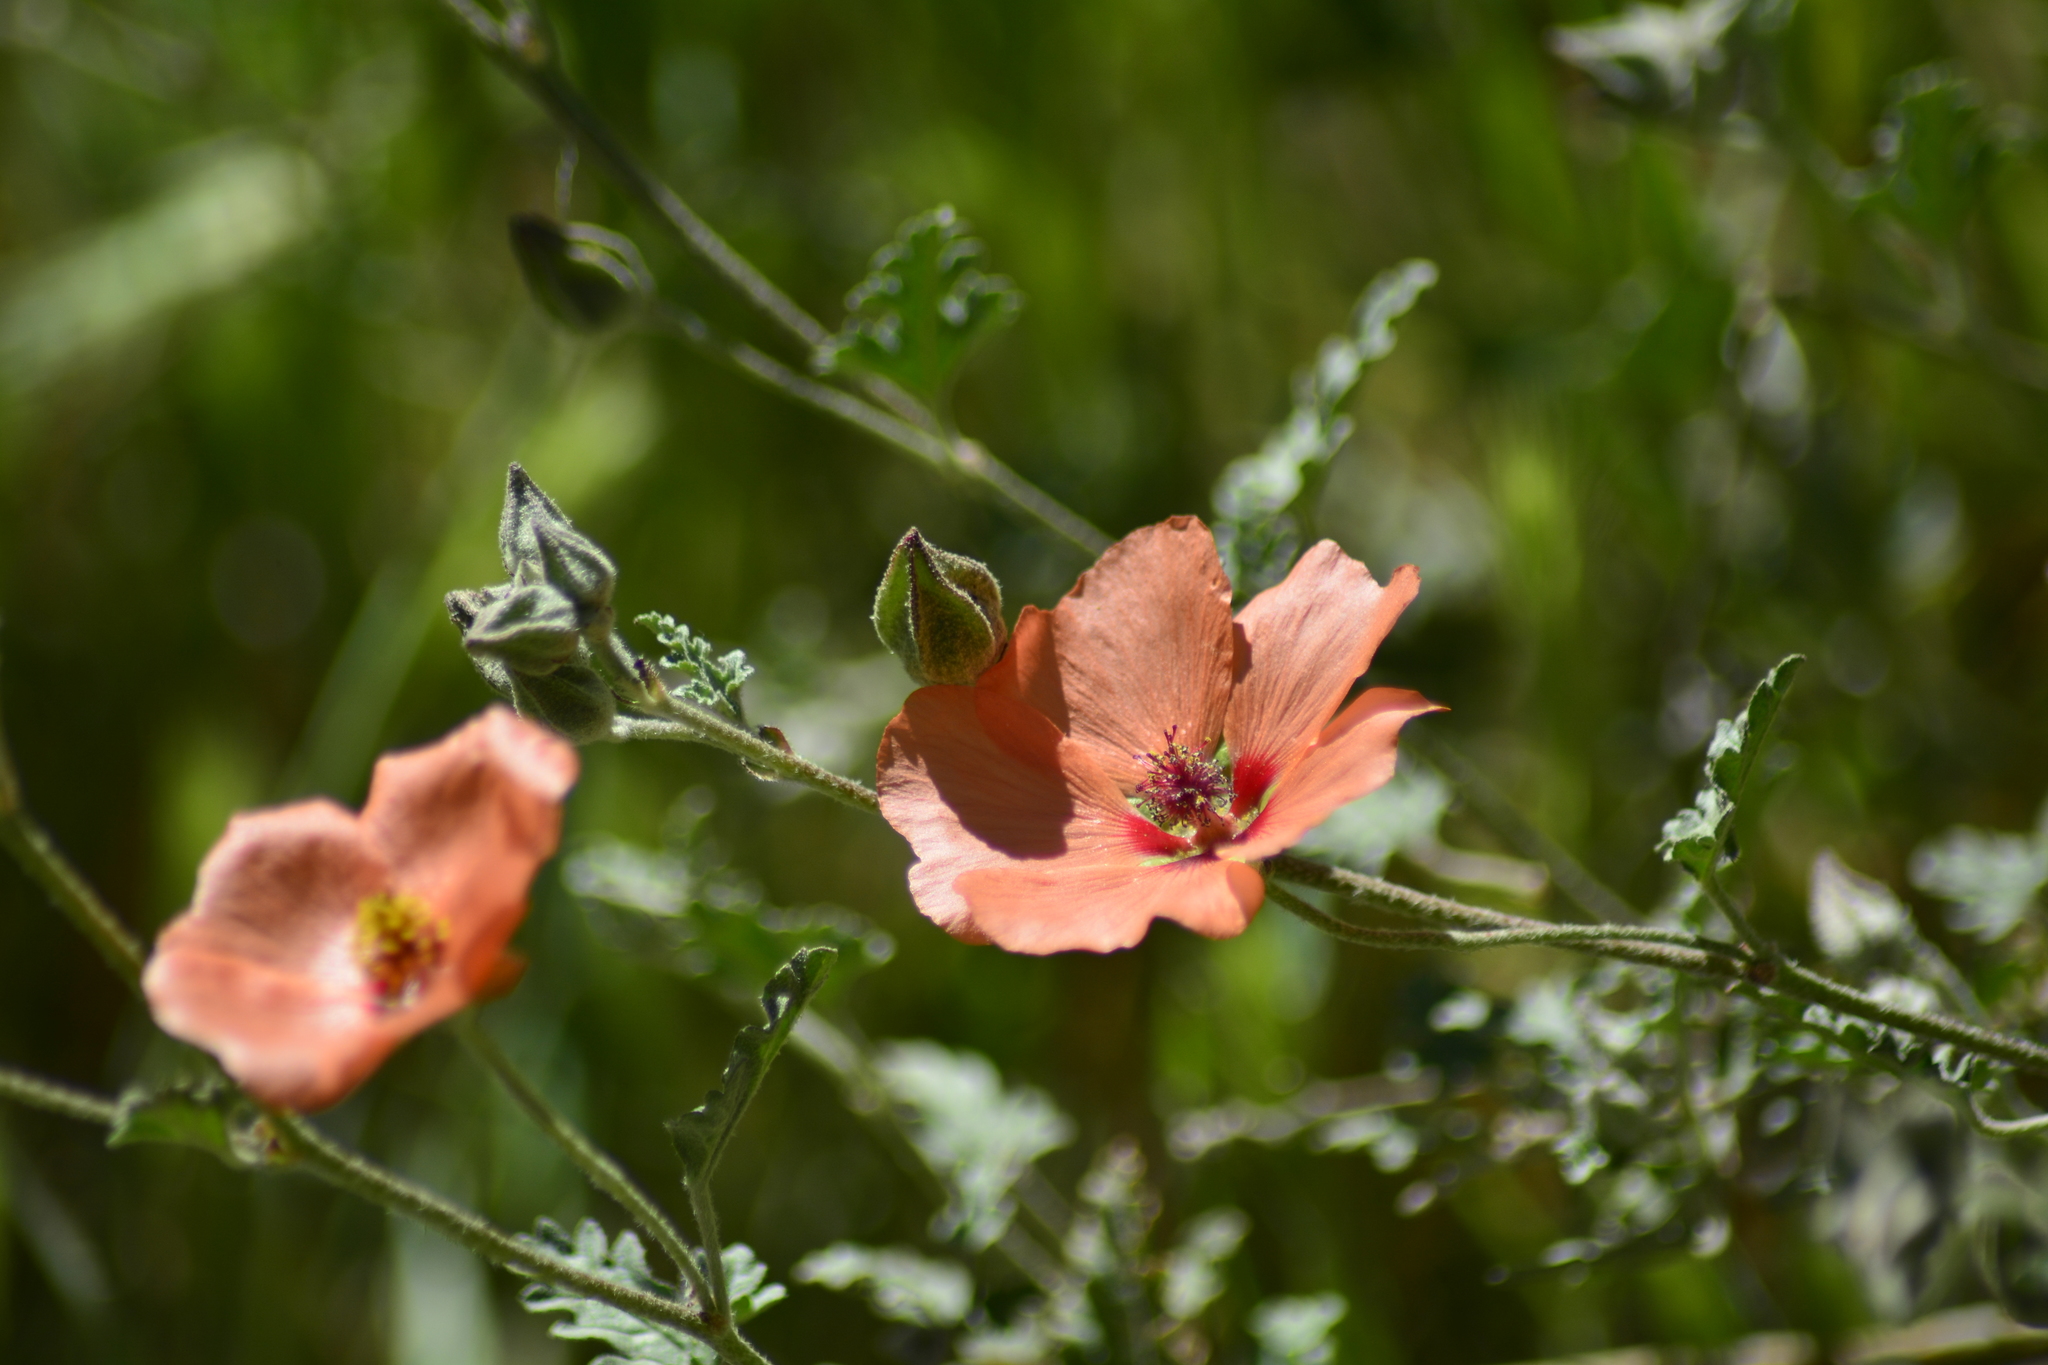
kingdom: Plantae
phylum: Tracheophyta
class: Magnoliopsida
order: Malvales
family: Malvaceae
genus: Sphaeralcea
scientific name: Sphaeralcea miniata
